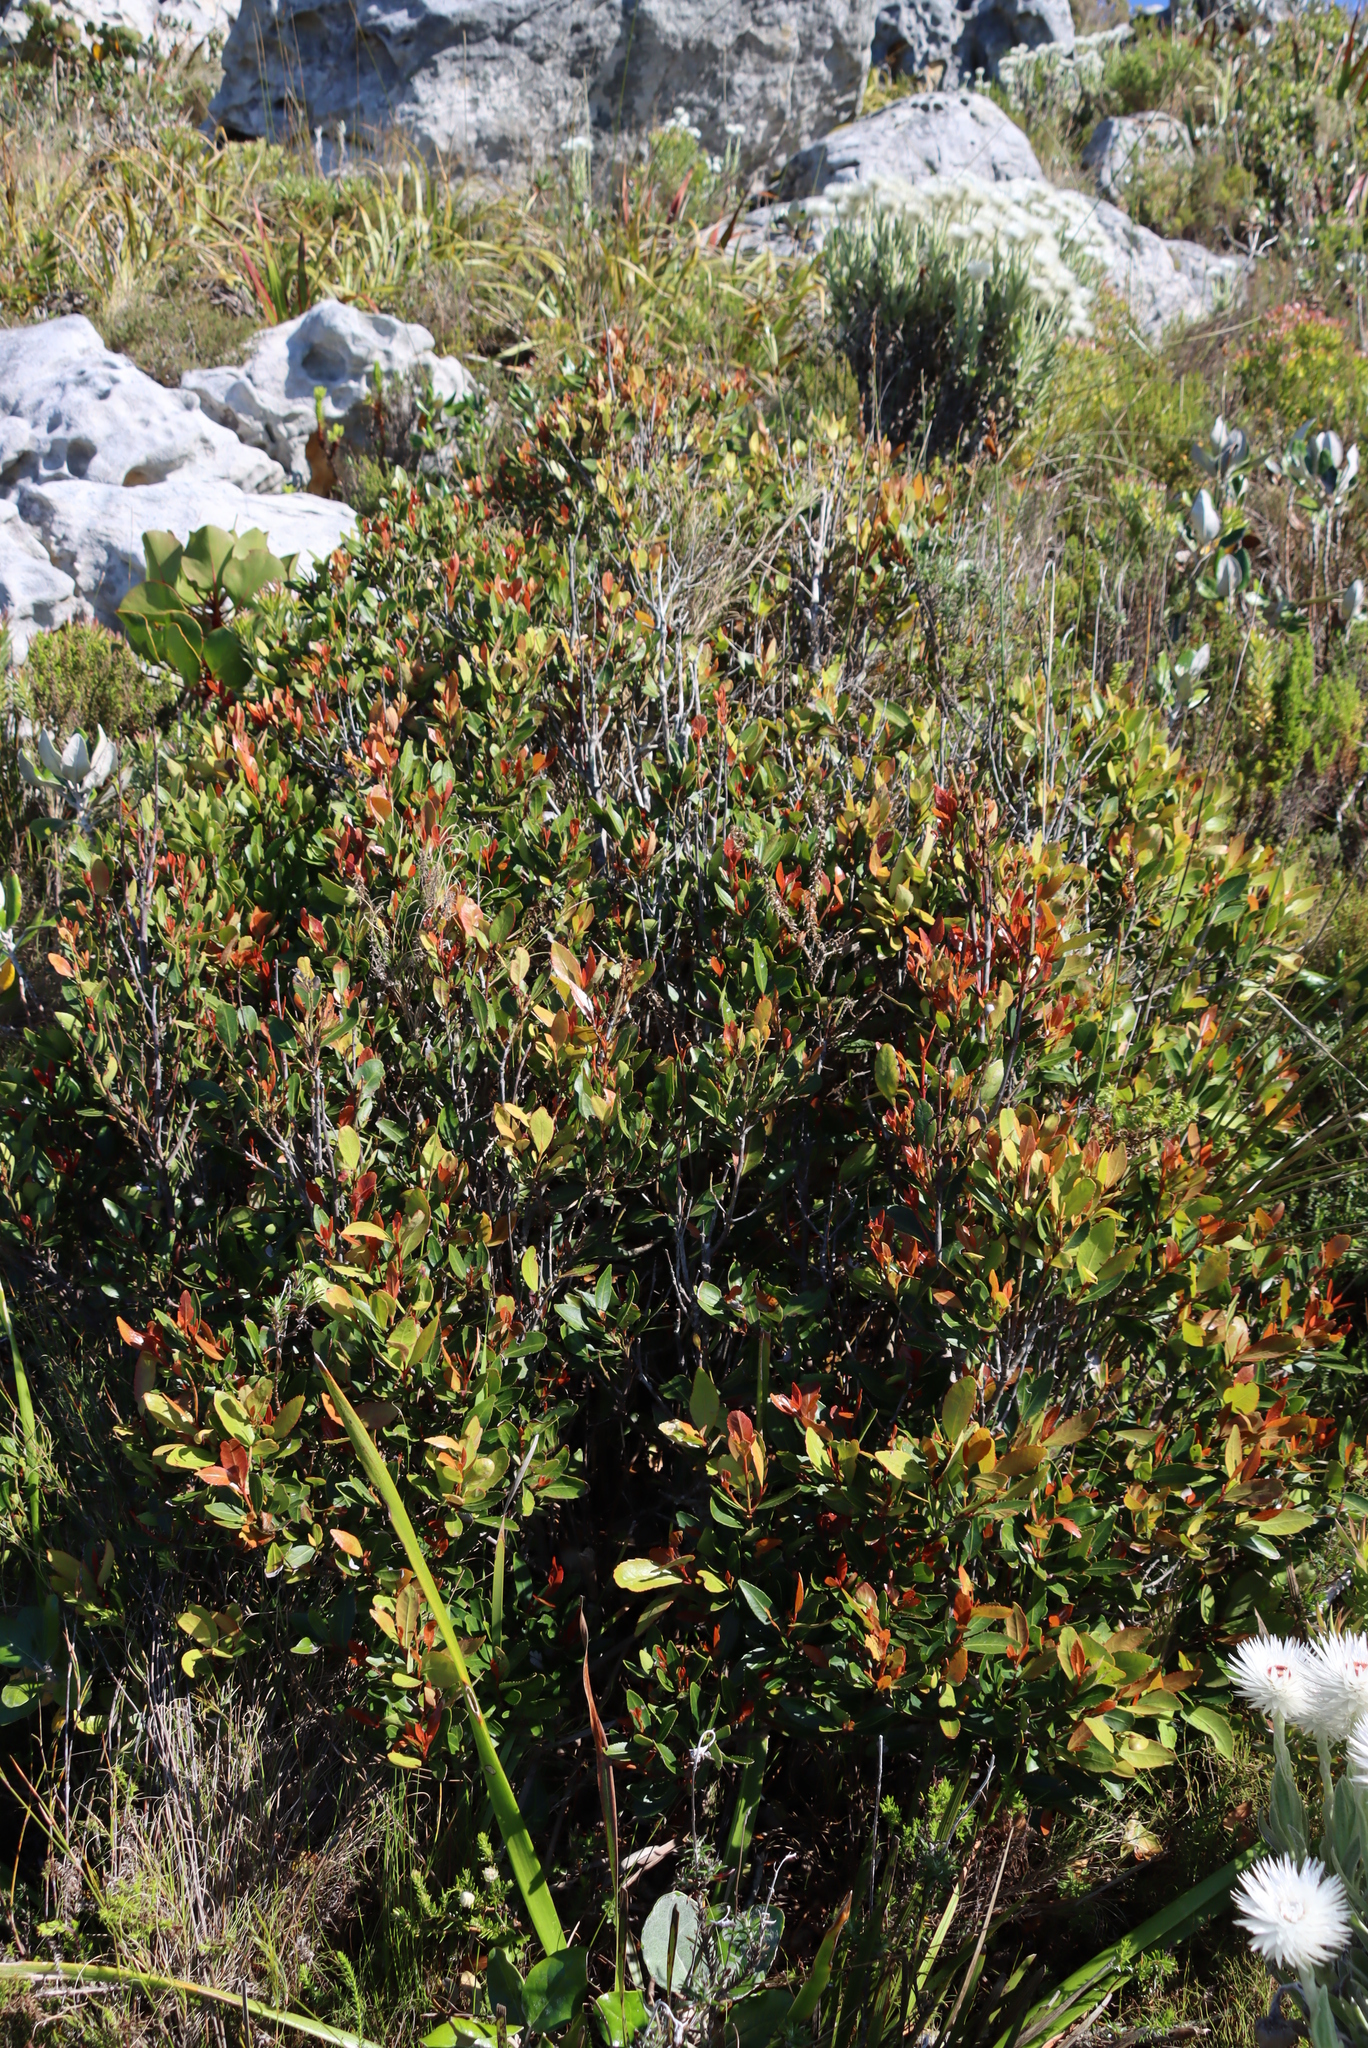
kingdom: Plantae
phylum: Tracheophyta
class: Magnoliopsida
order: Celastrales
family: Celastraceae
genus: Elaeodendron
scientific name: Elaeodendron schinoides
